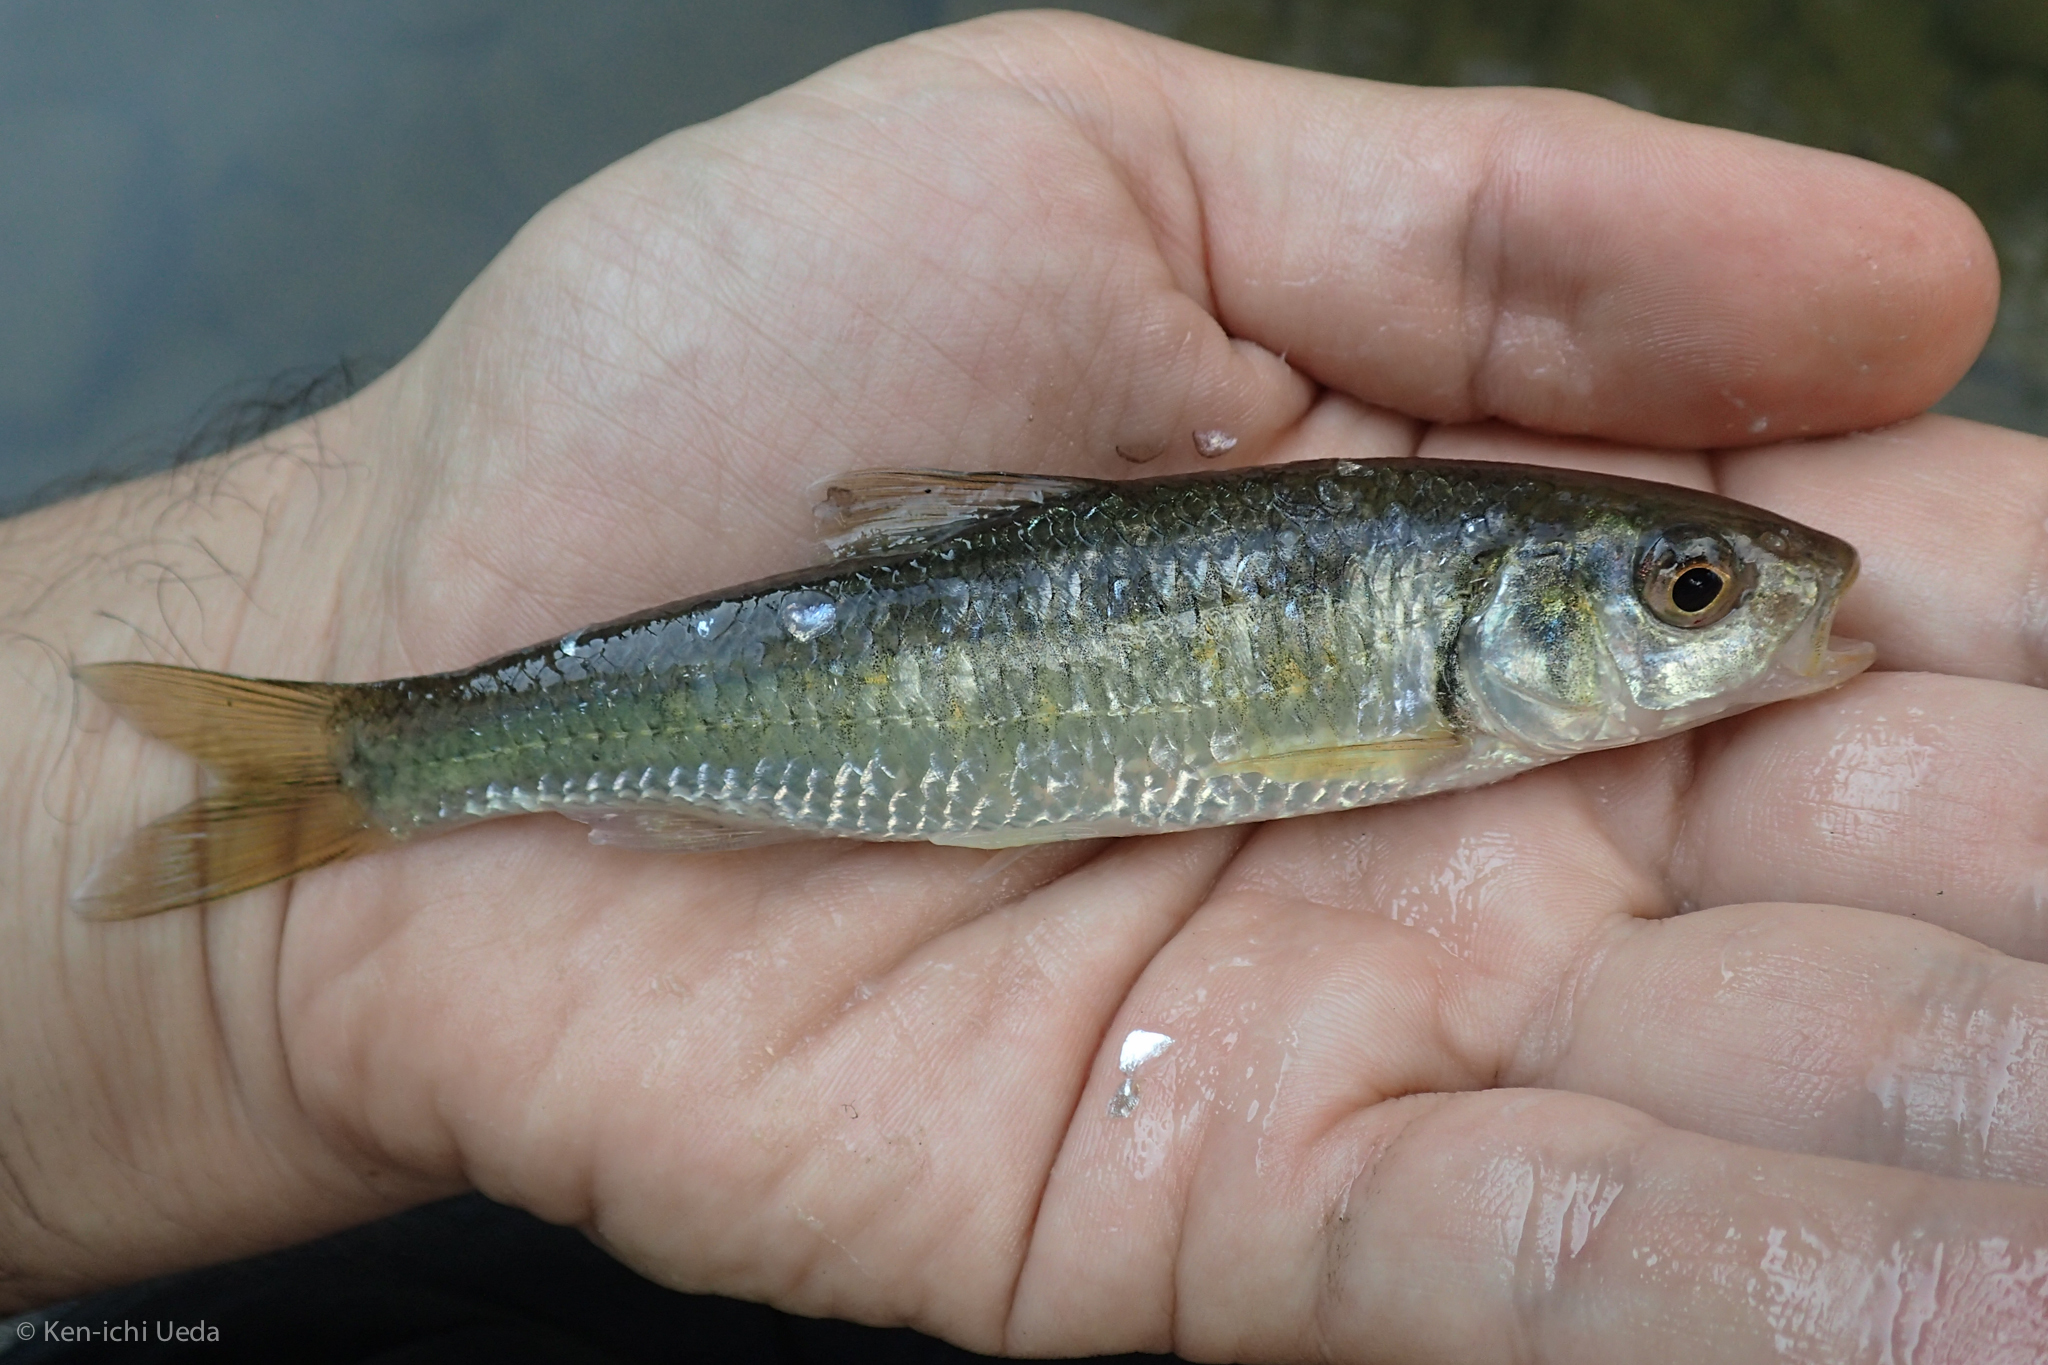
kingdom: Animalia
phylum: Chordata
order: Cypriniformes
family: Cyprinidae
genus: Luxilus
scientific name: Luxilus chrysocephalus
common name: Striped shiner
